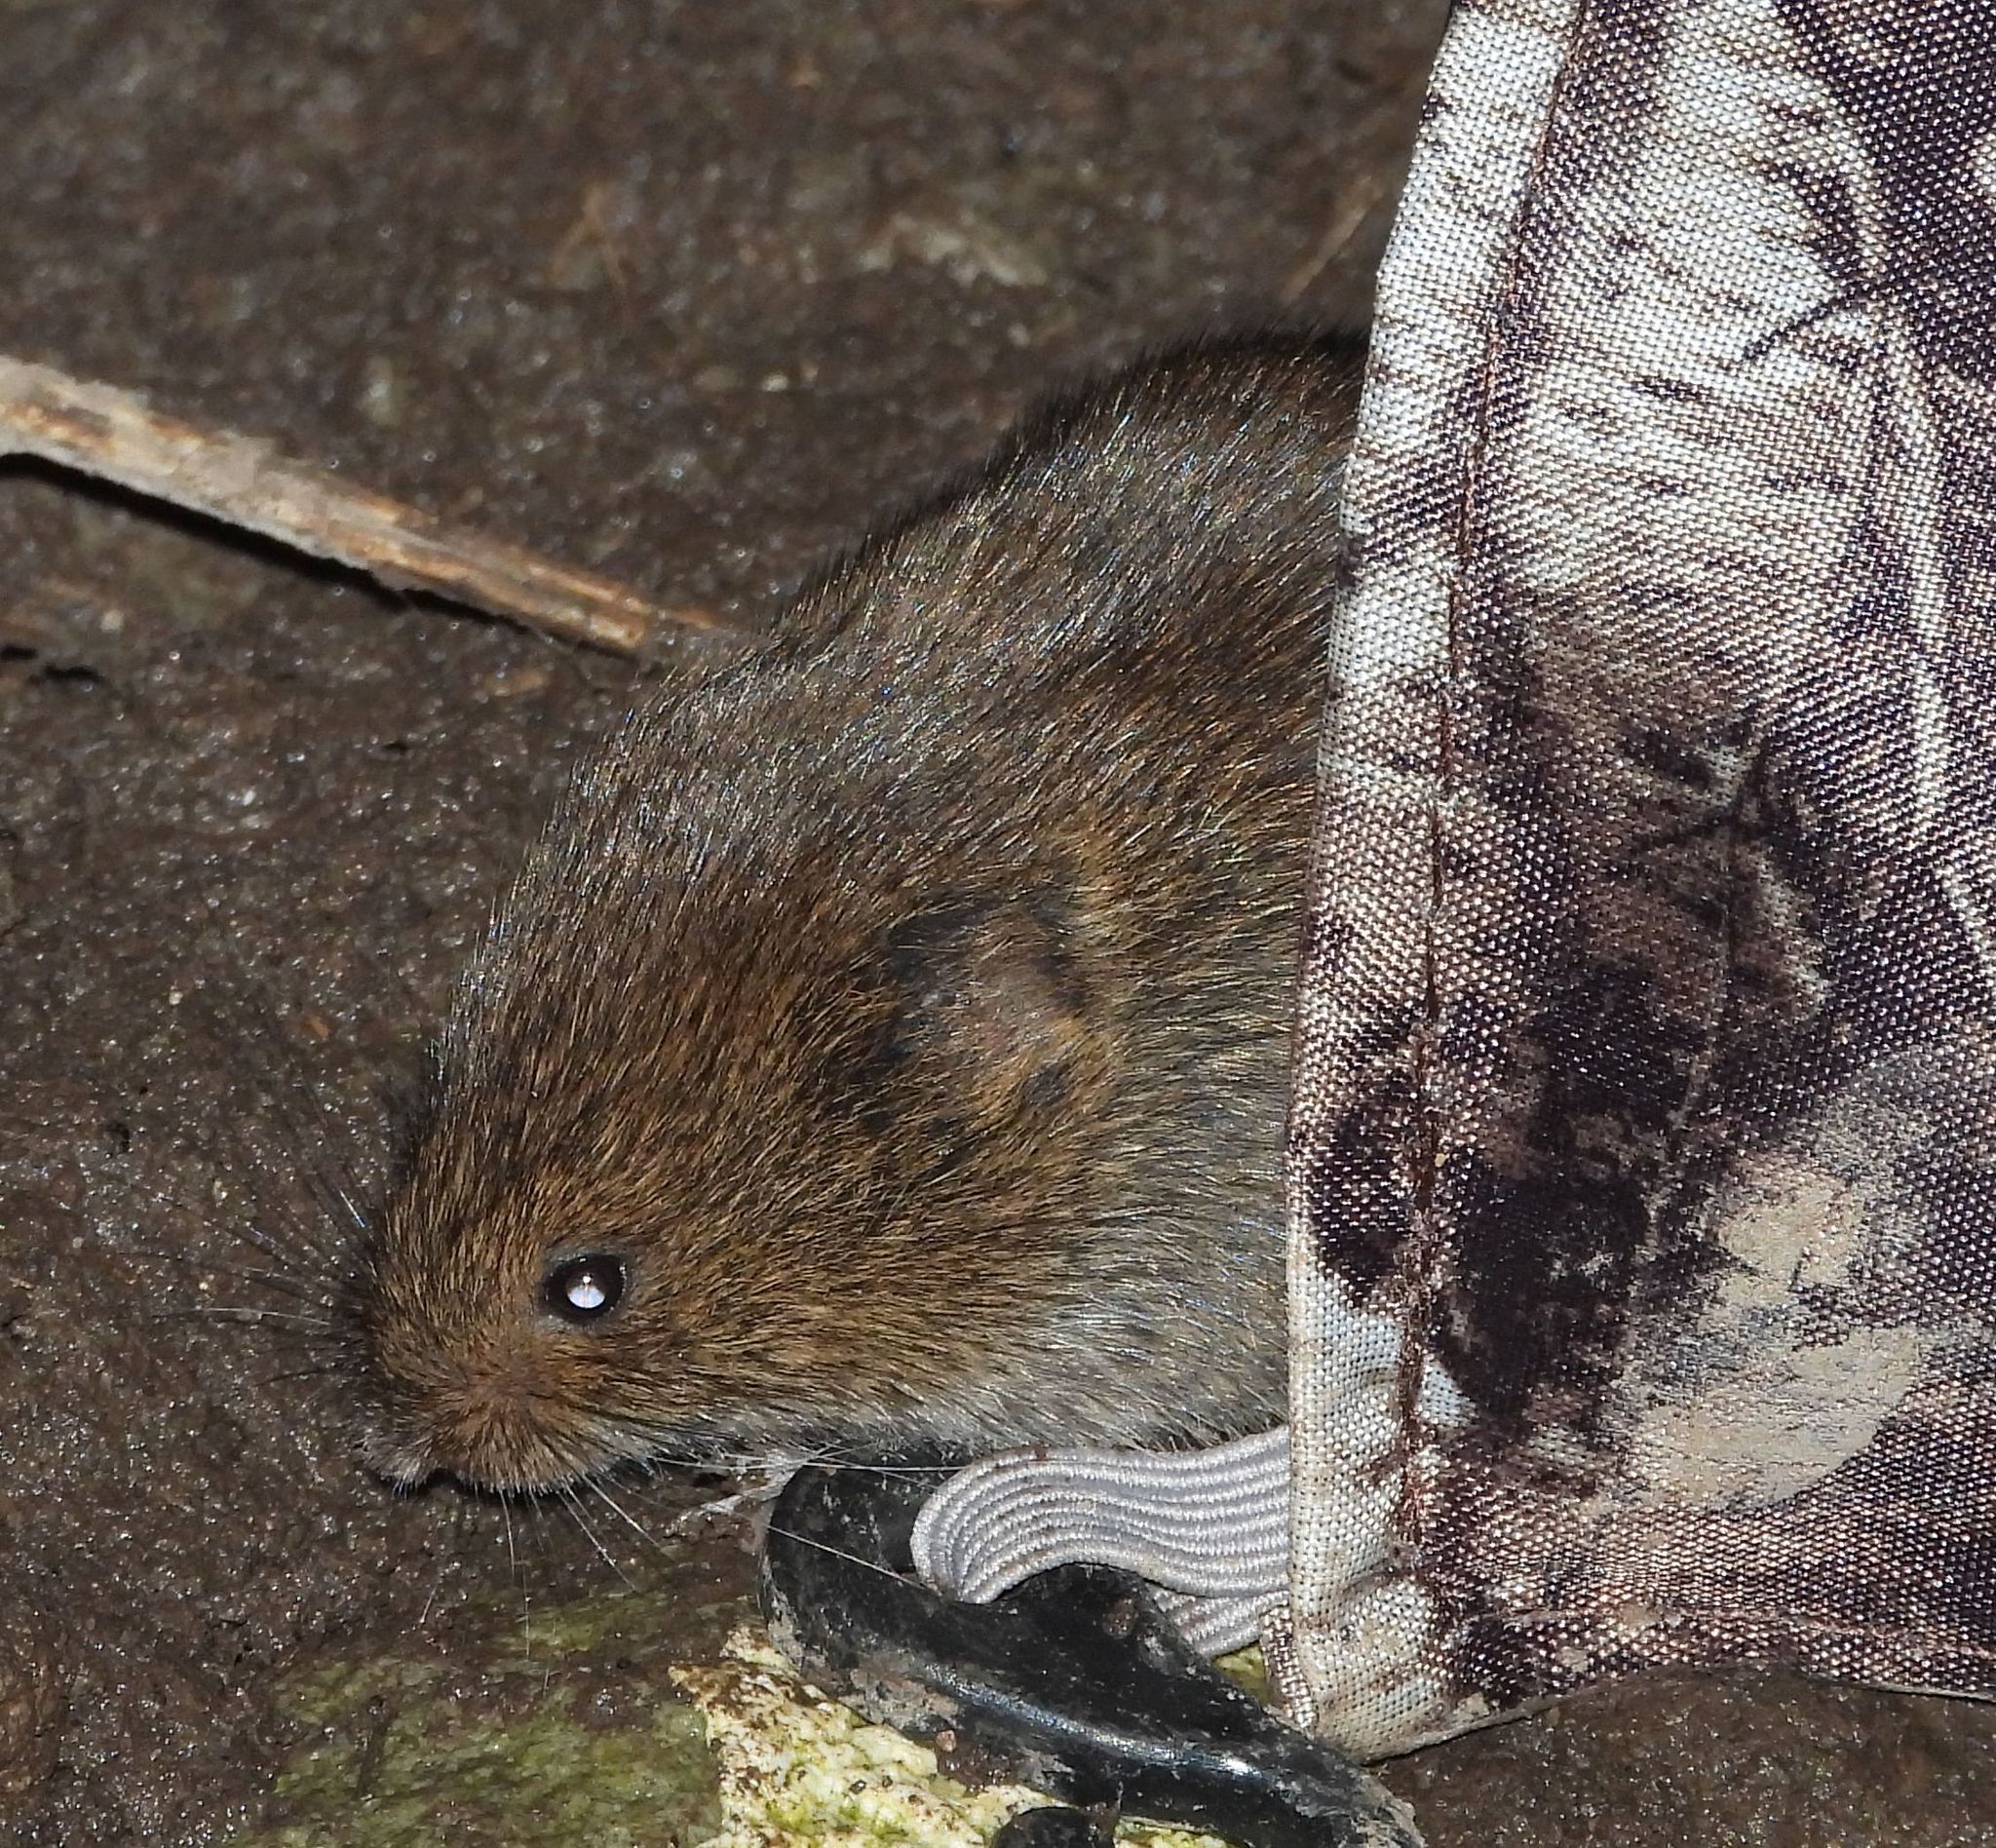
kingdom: Animalia
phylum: Chordata
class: Mammalia
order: Rodentia
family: Cricetidae
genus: Microtus
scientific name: Microtus pennsylvanicus
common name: Meadow vole
